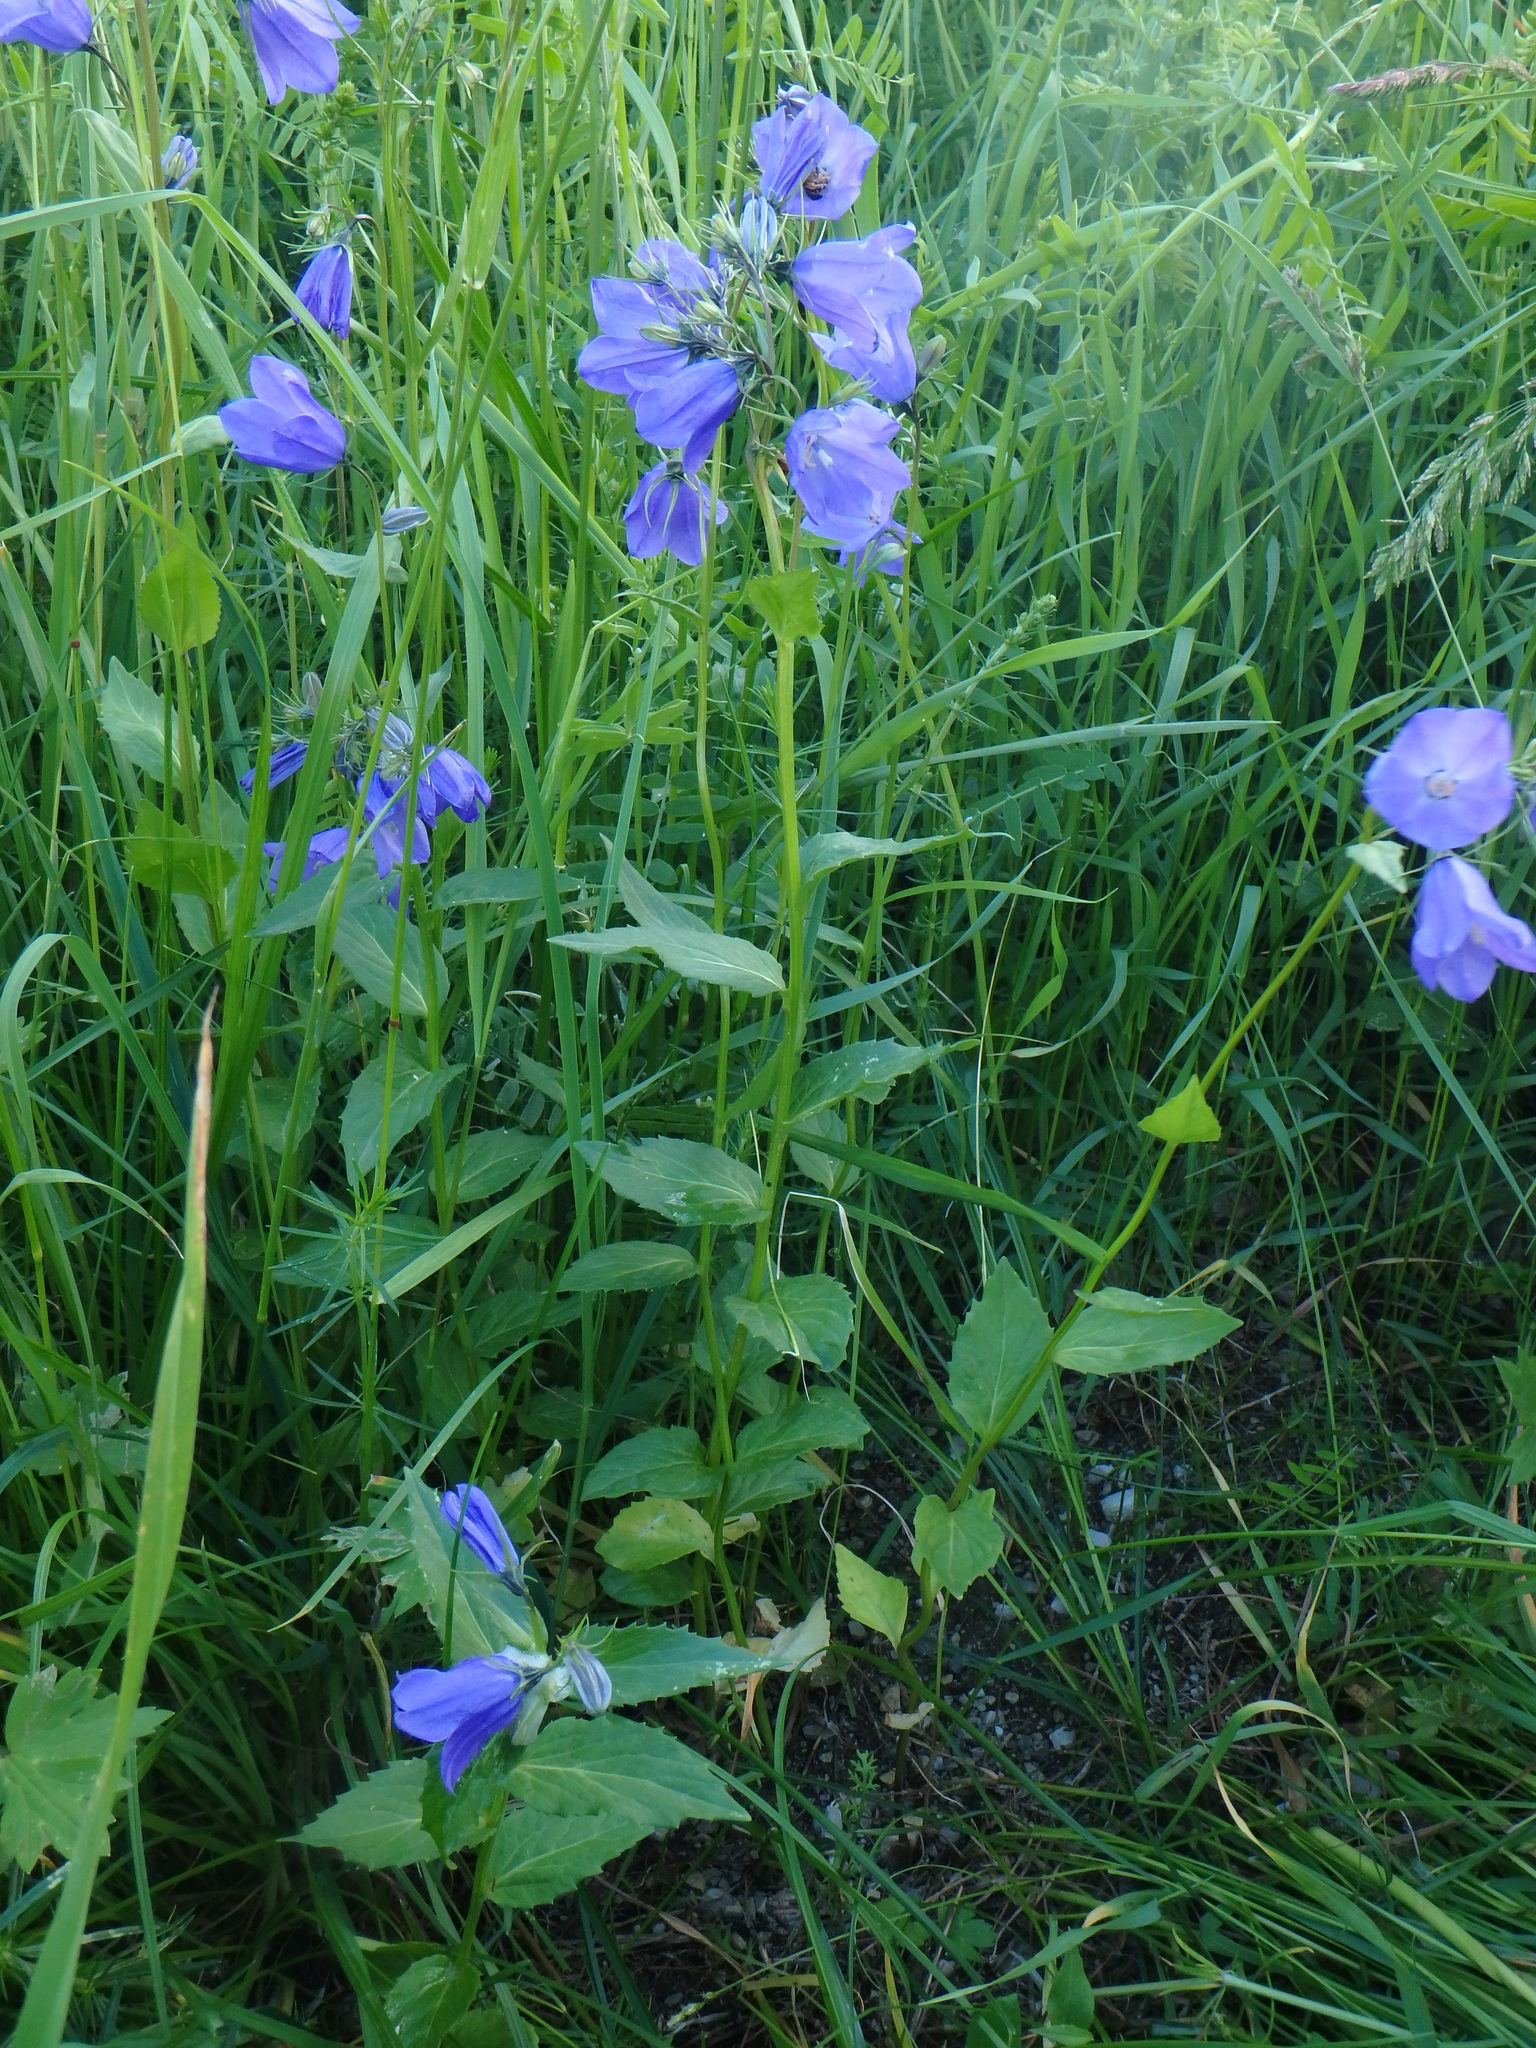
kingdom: Plantae
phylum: Tracheophyta
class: Magnoliopsida
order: Asterales
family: Campanulaceae
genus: Campanula
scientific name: Campanula rhomboidalis
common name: Broad-leaved harebell
